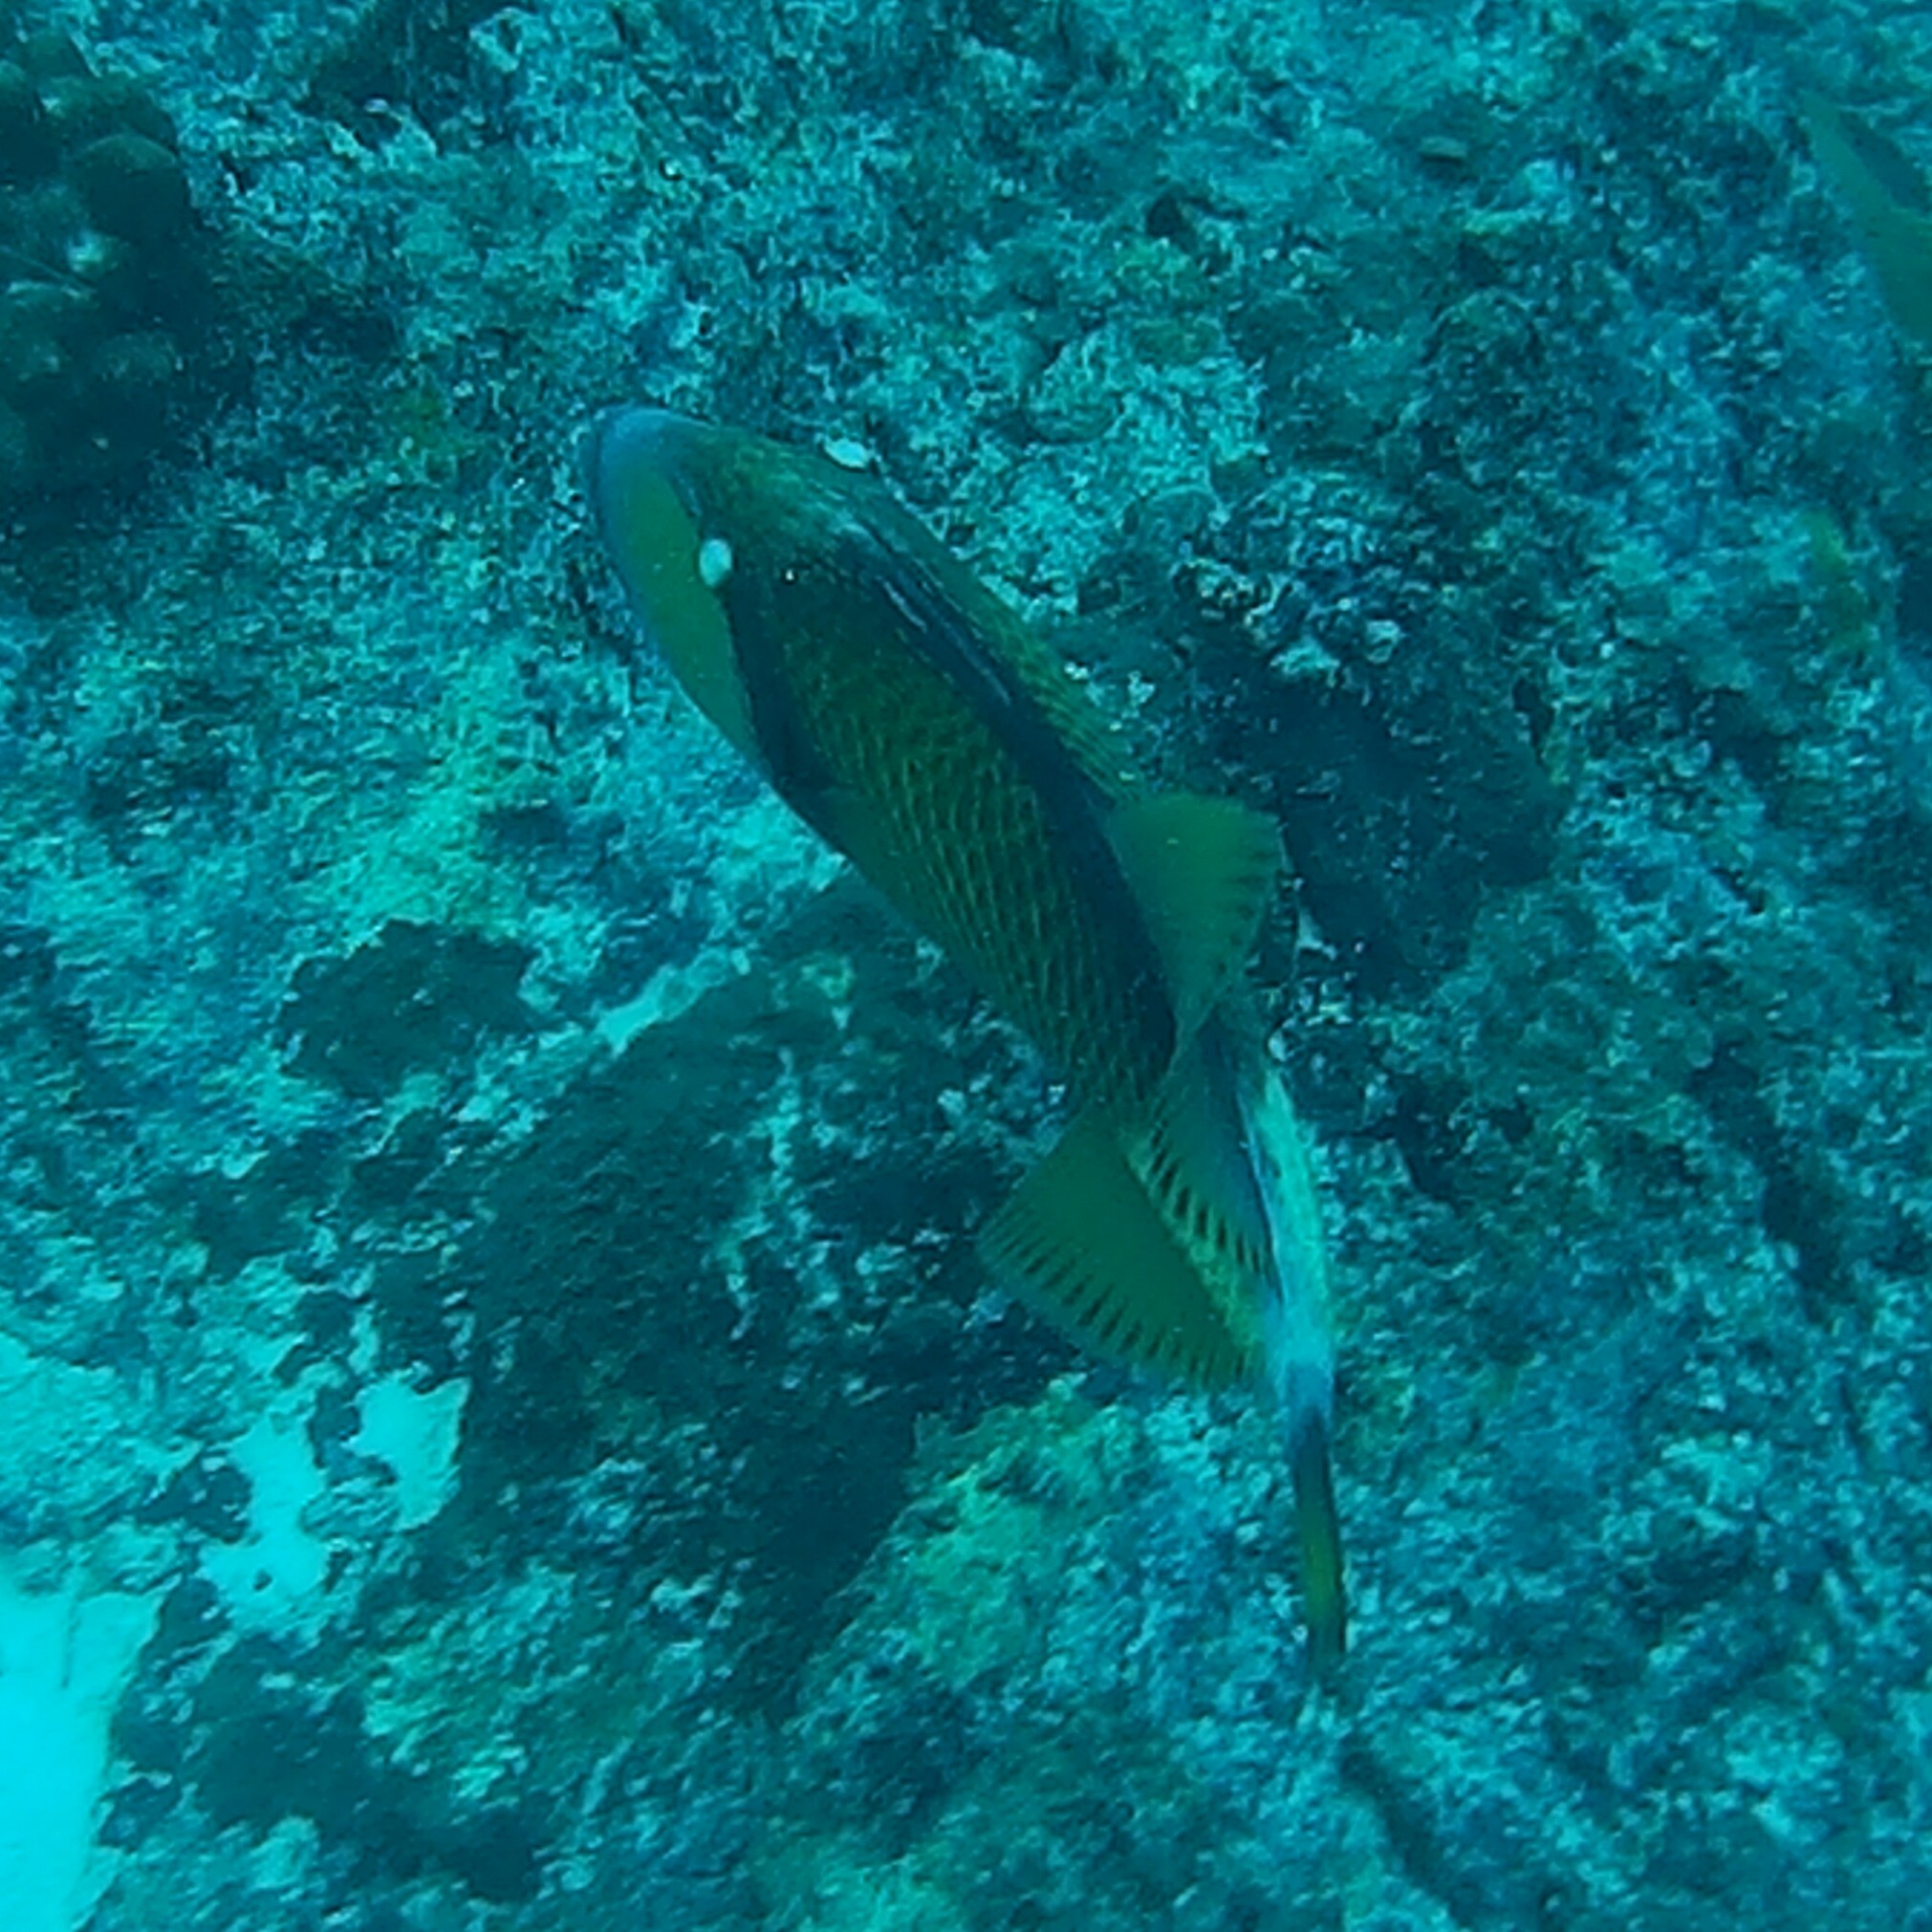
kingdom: Animalia
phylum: Chordata
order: Tetraodontiformes
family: Balistidae
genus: Balistoides
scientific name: Balistoides viridescens
